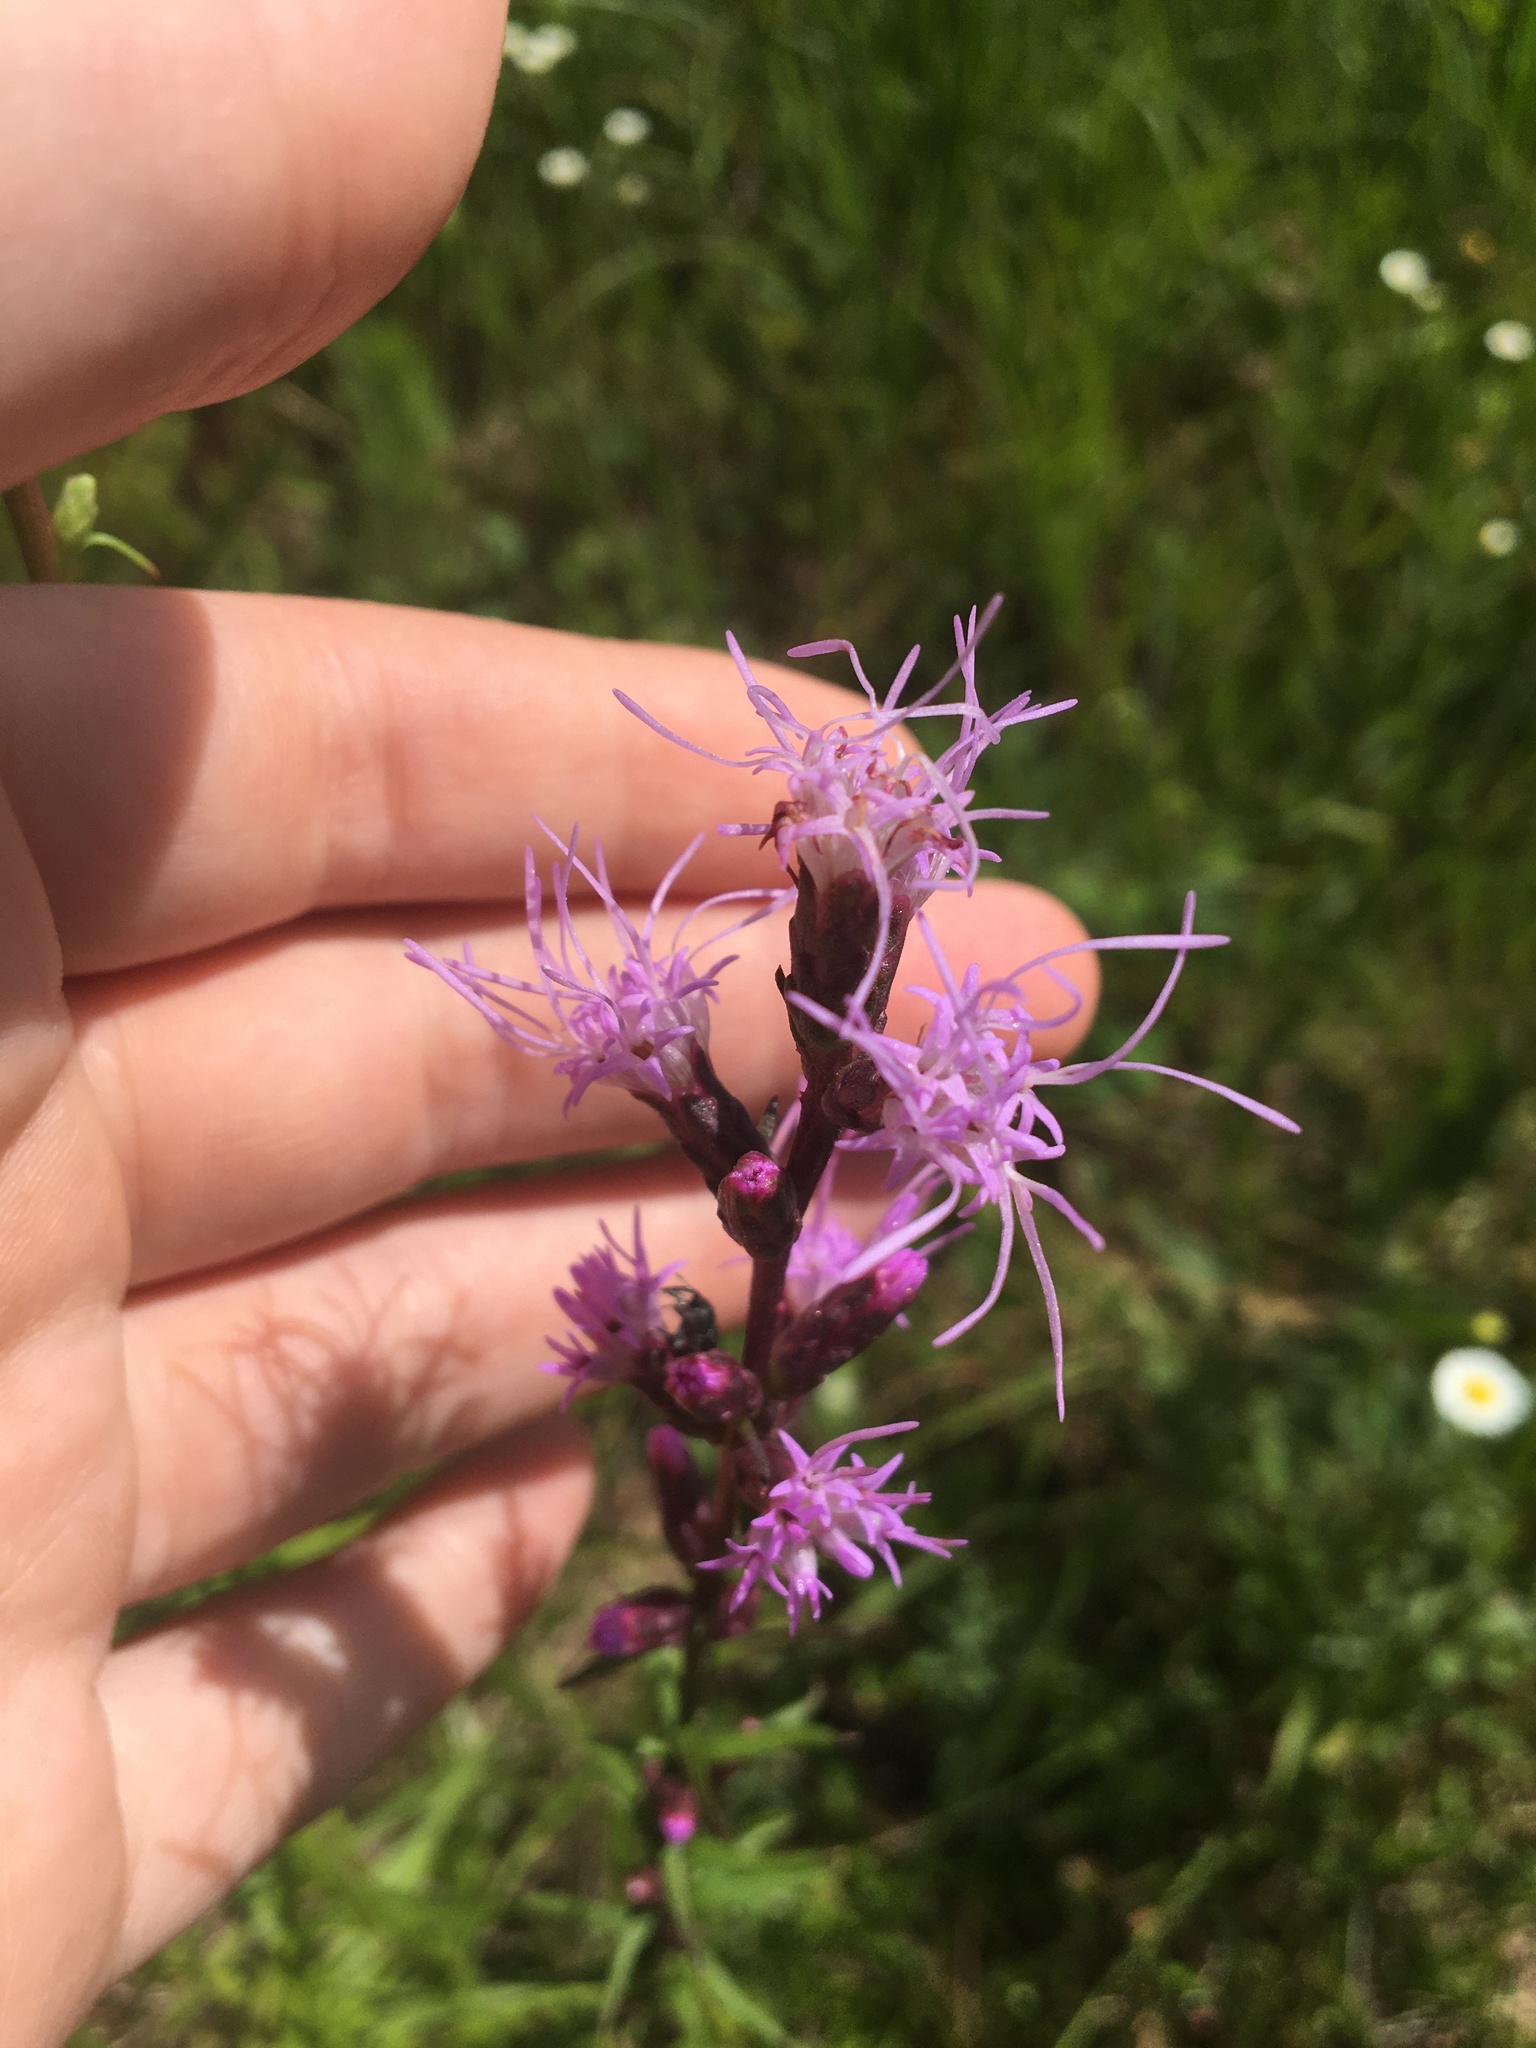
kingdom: Plantae
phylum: Tracheophyta
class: Magnoliopsida
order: Asterales
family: Asteraceae
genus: Liatris
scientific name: Liatris spicata
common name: Florist gayfeather
